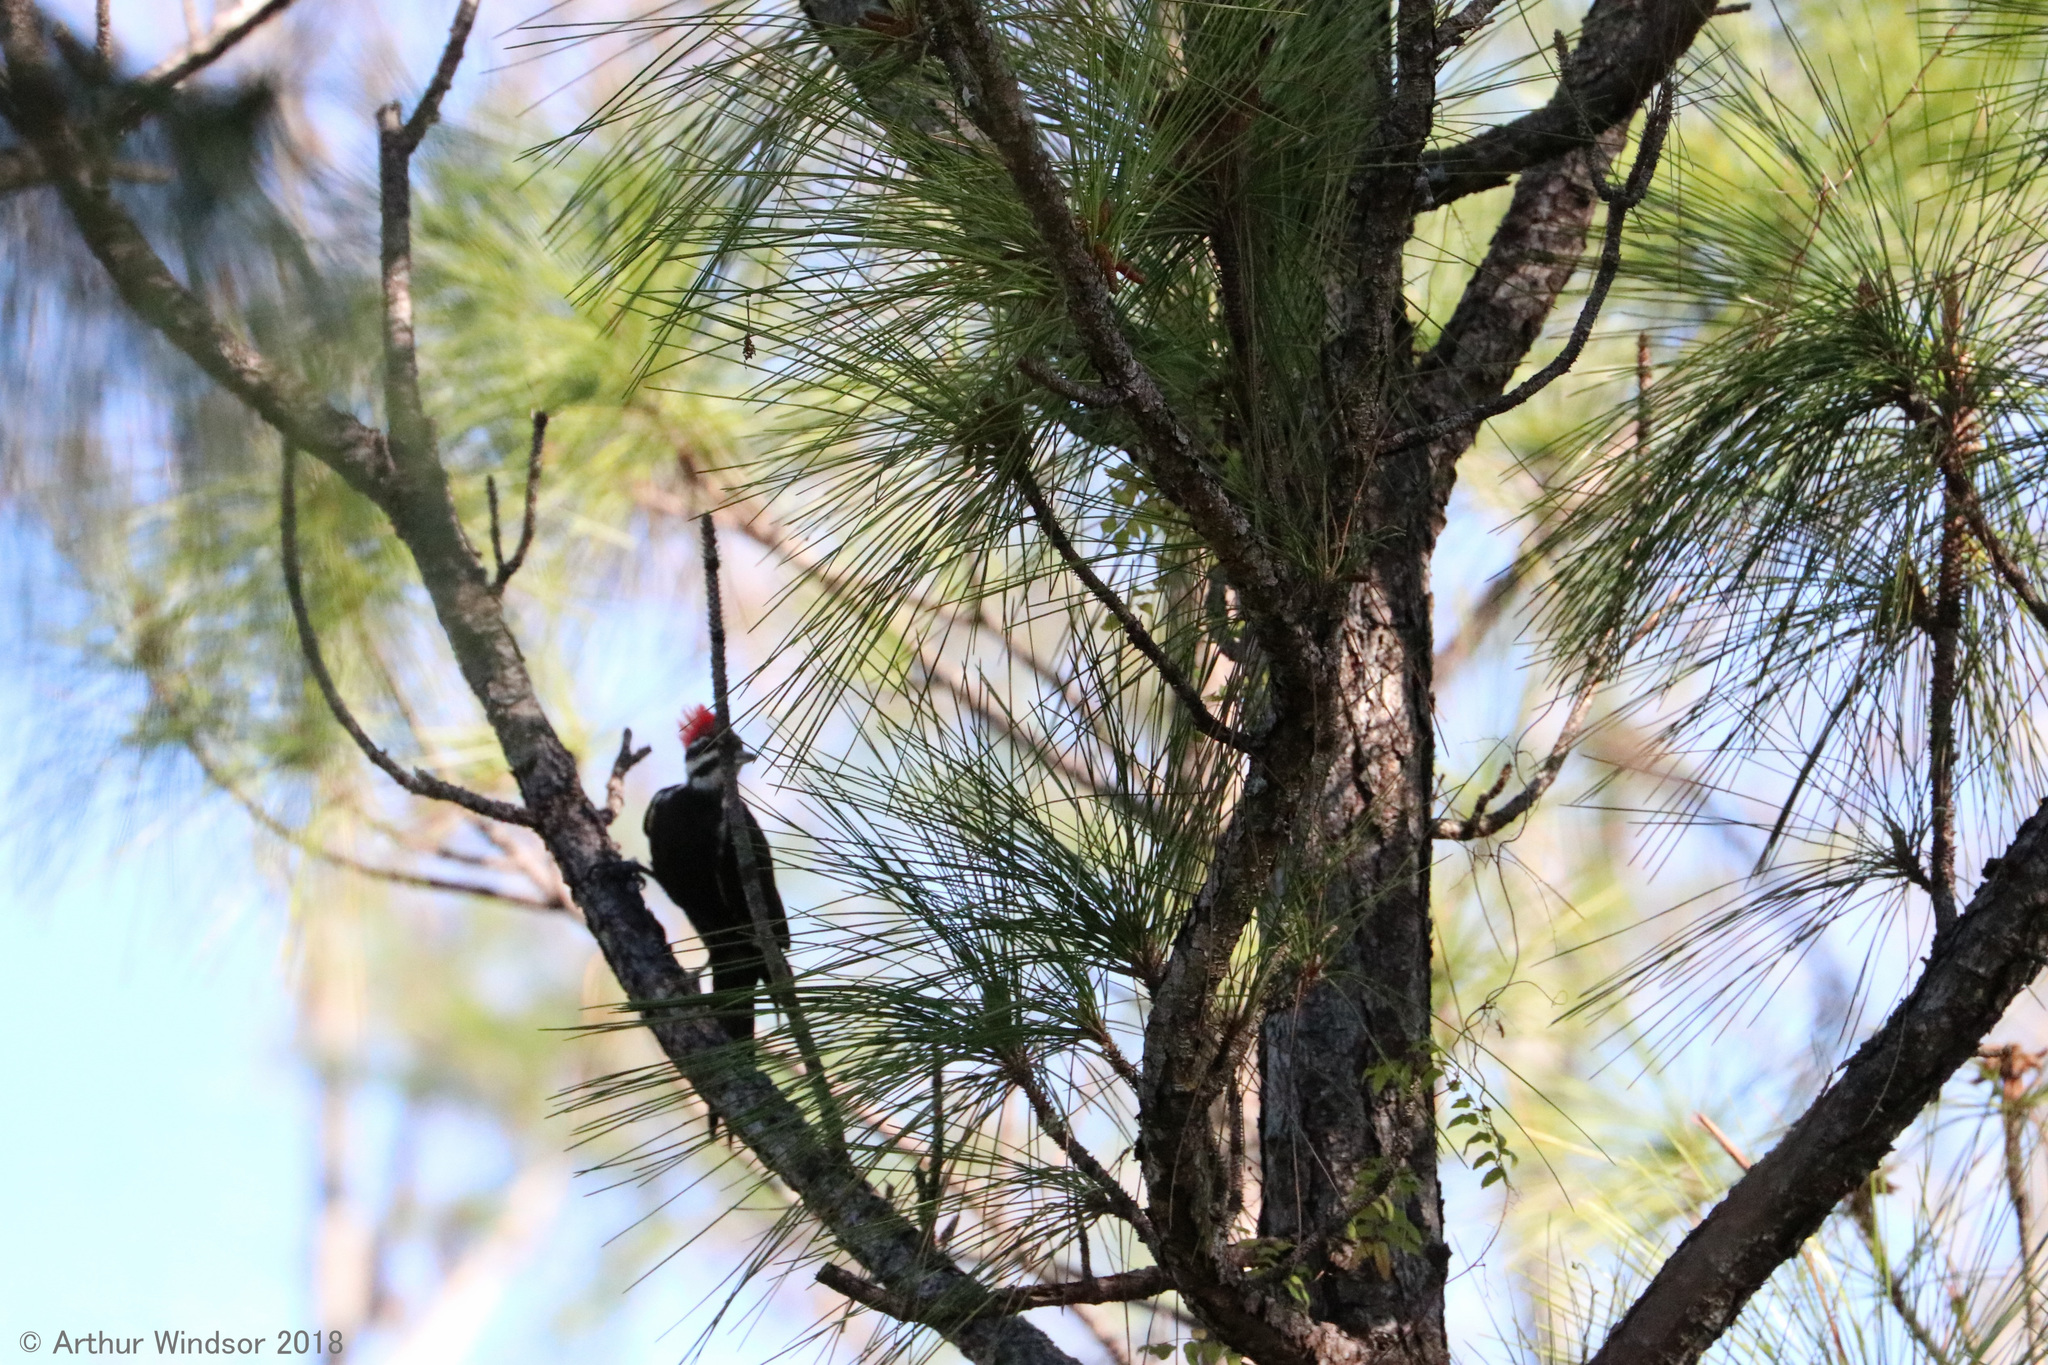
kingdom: Animalia
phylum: Chordata
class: Aves
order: Piciformes
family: Picidae
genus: Dryocopus
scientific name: Dryocopus pileatus
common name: Pileated woodpecker
